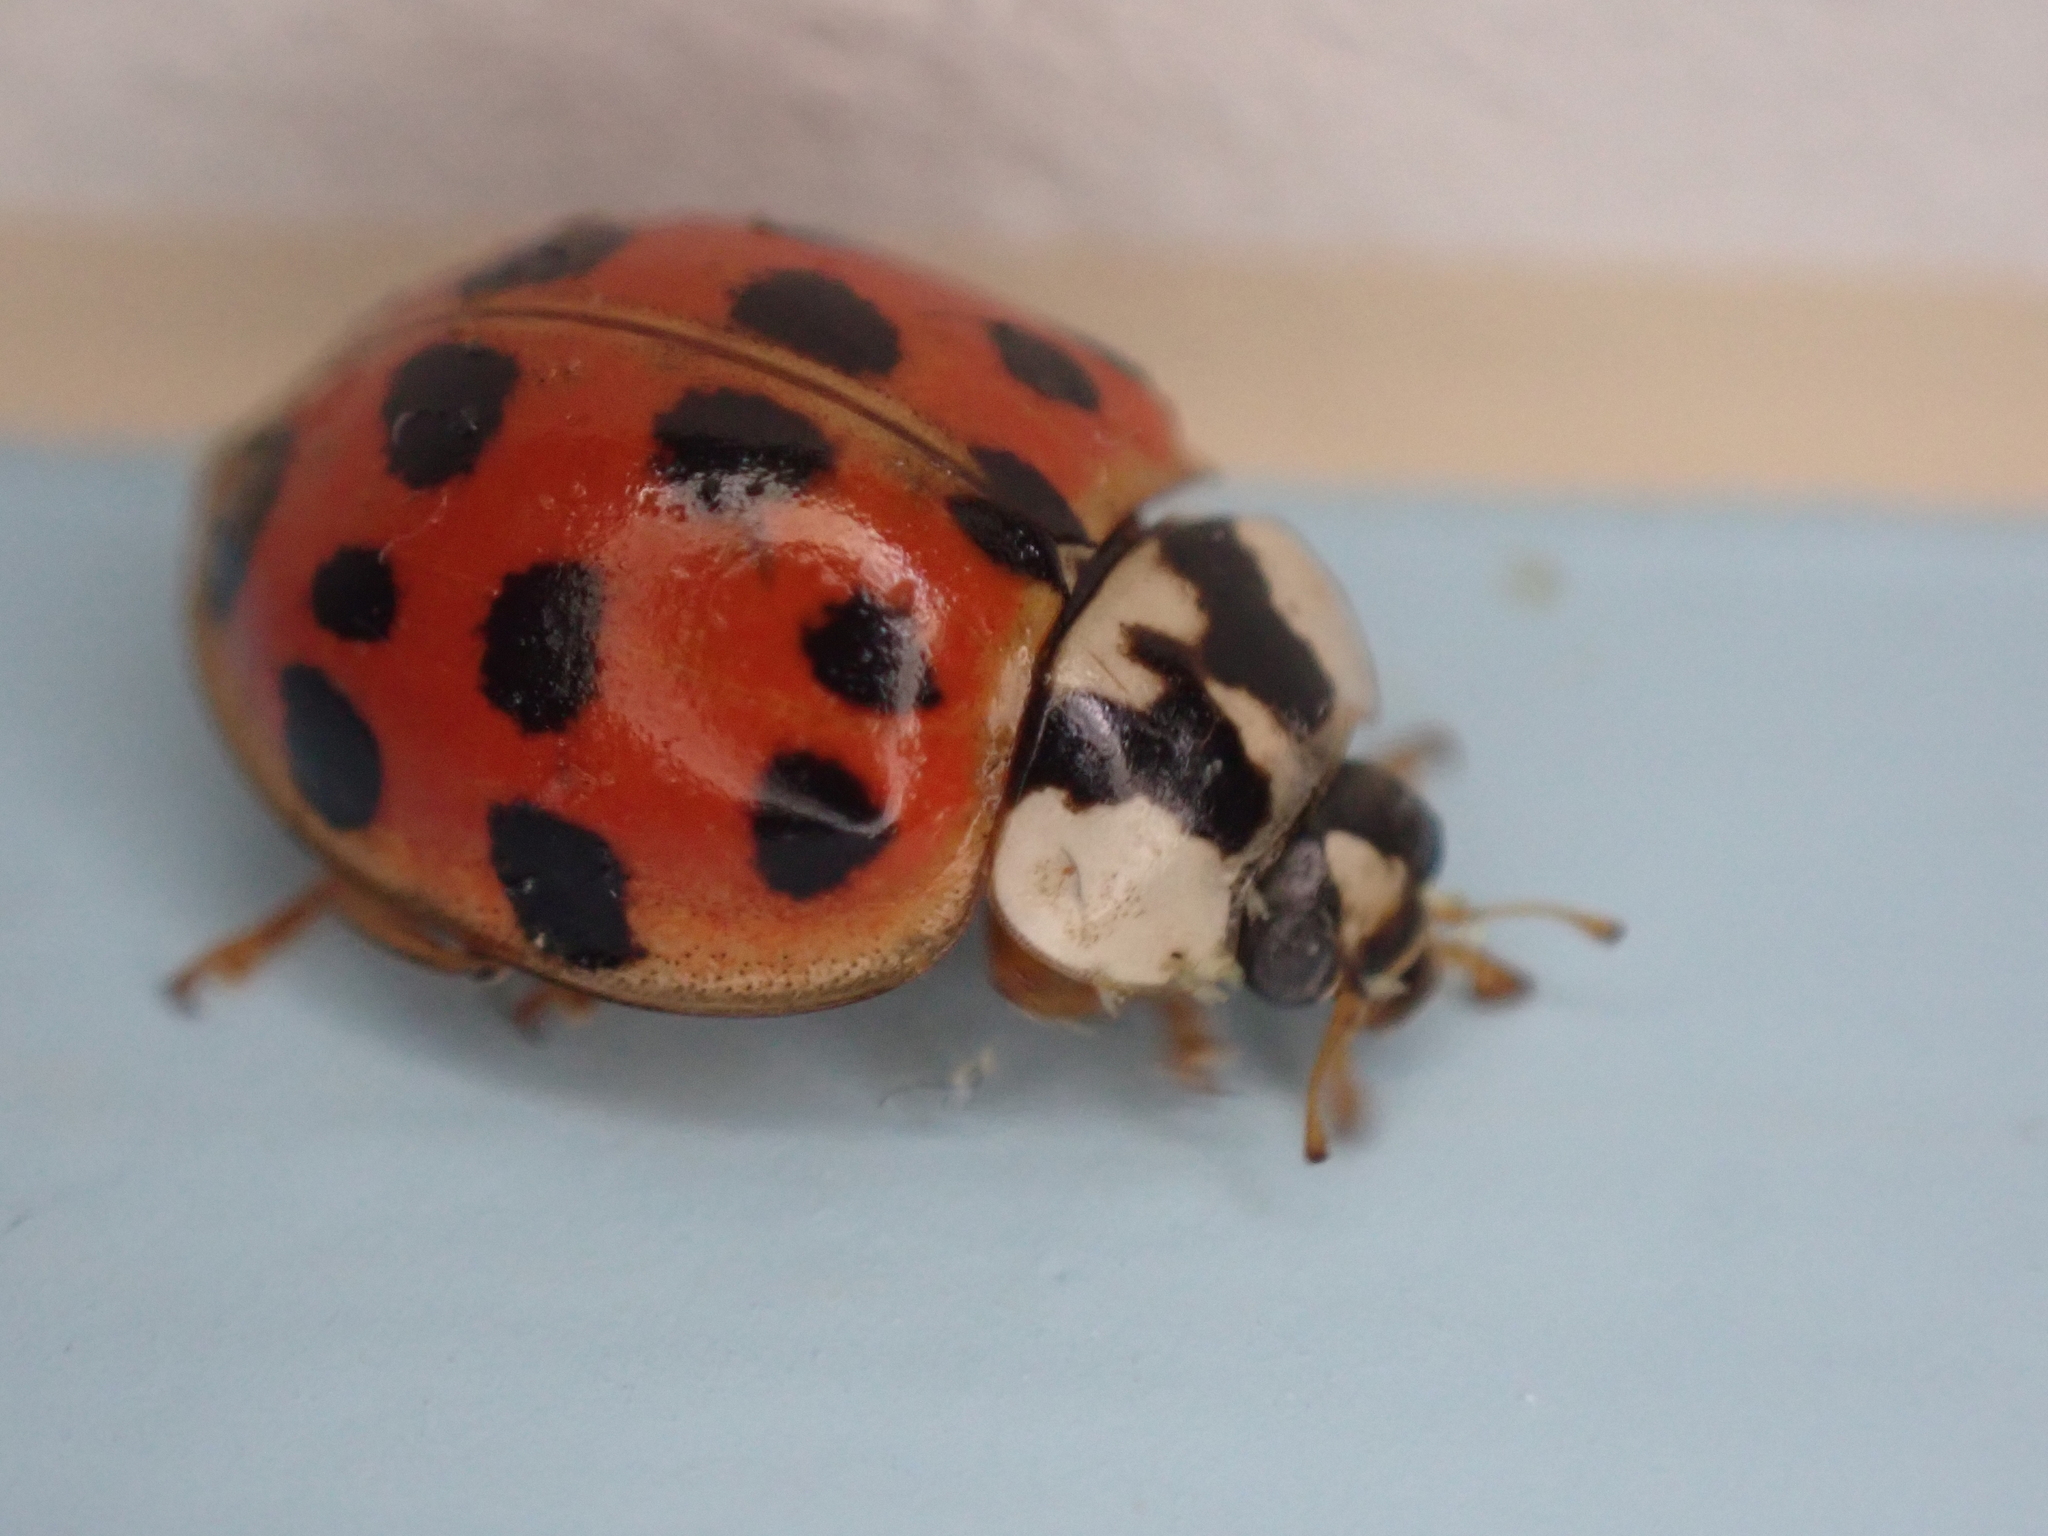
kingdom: Animalia
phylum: Arthropoda
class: Insecta
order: Coleoptera
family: Coccinellidae
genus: Harmonia
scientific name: Harmonia axyridis
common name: Harlequin ladybird
